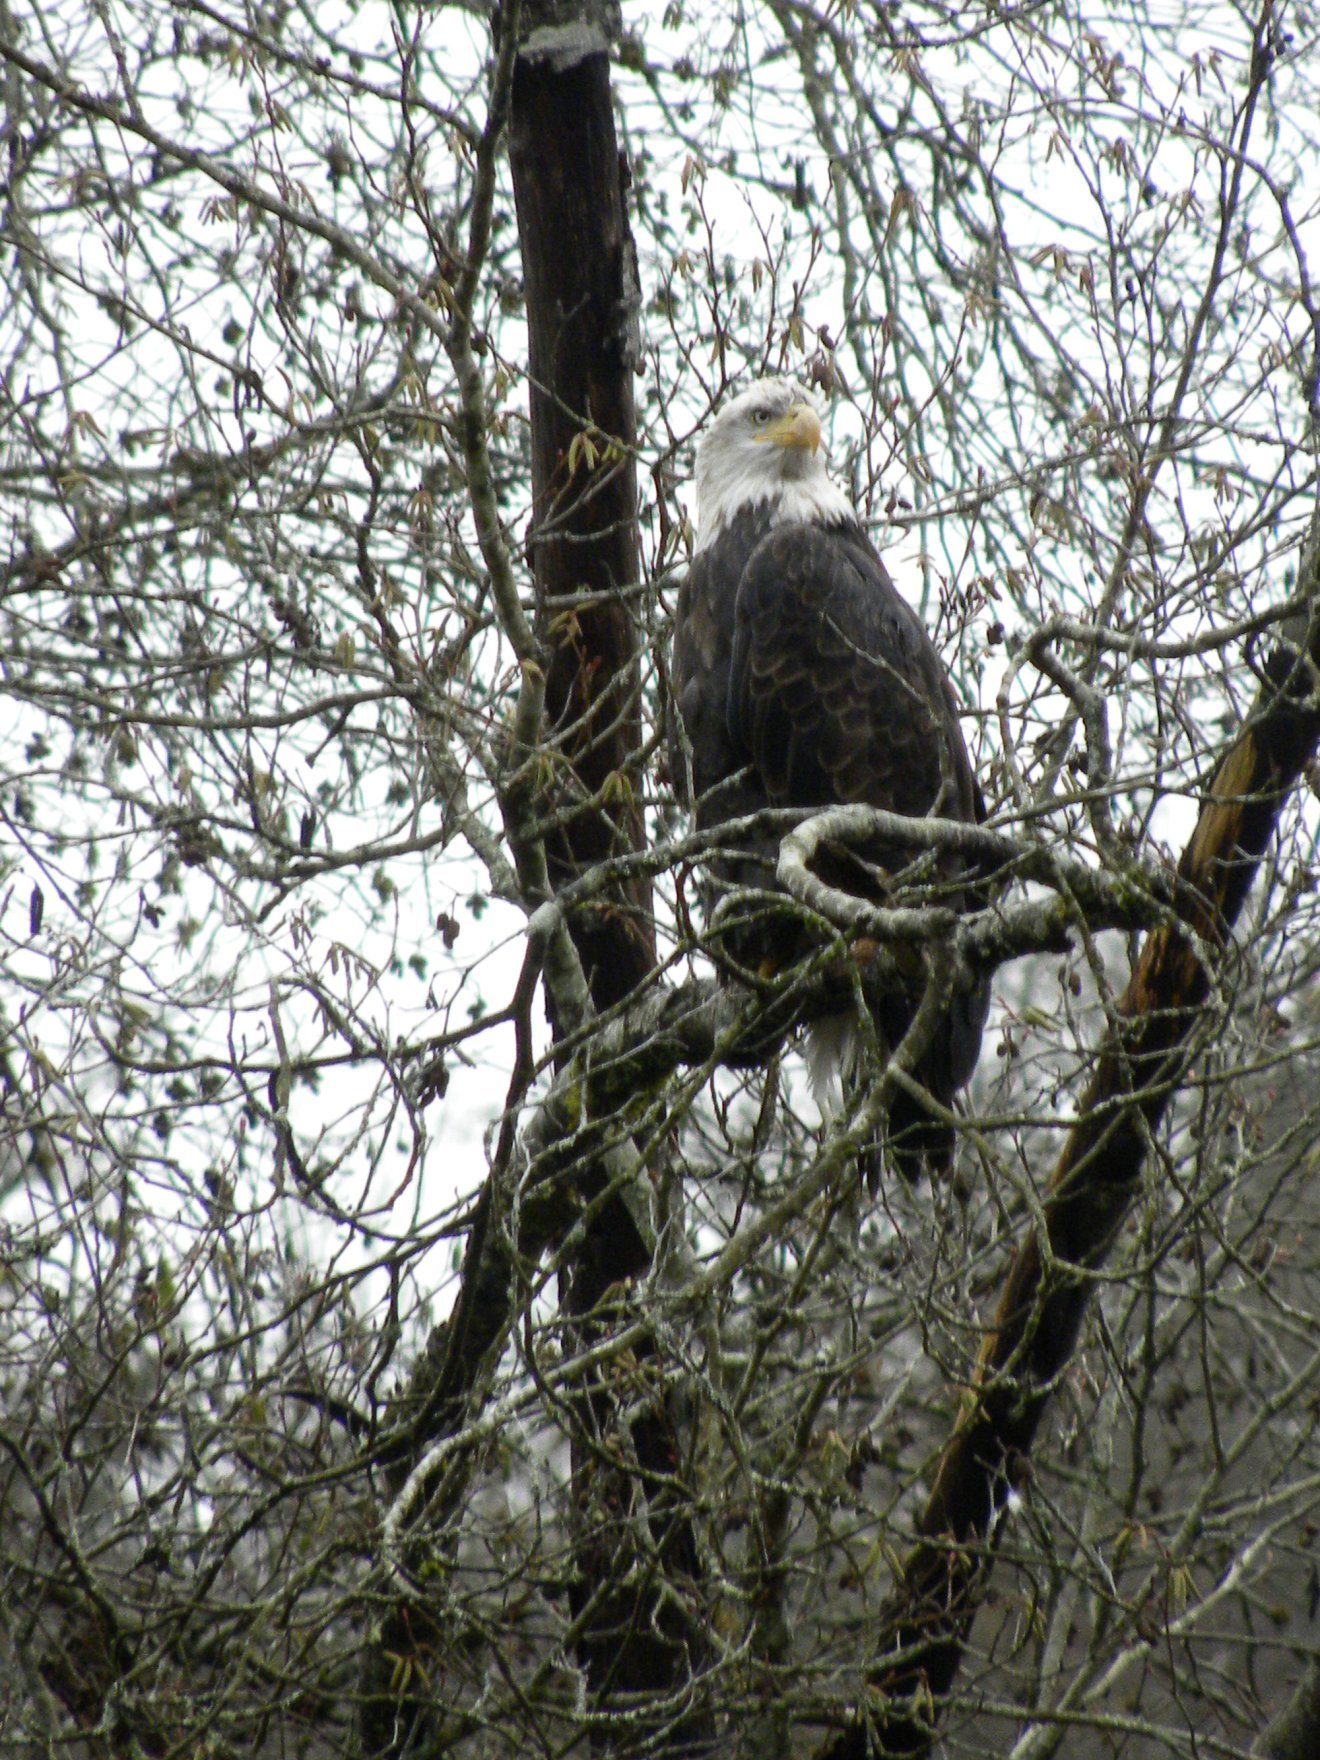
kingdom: Animalia
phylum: Chordata
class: Aves
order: Accipitriformes
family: Accipitridae
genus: Haliaeetus
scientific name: Haliaeetus leucocephalus
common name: Bald eagle
